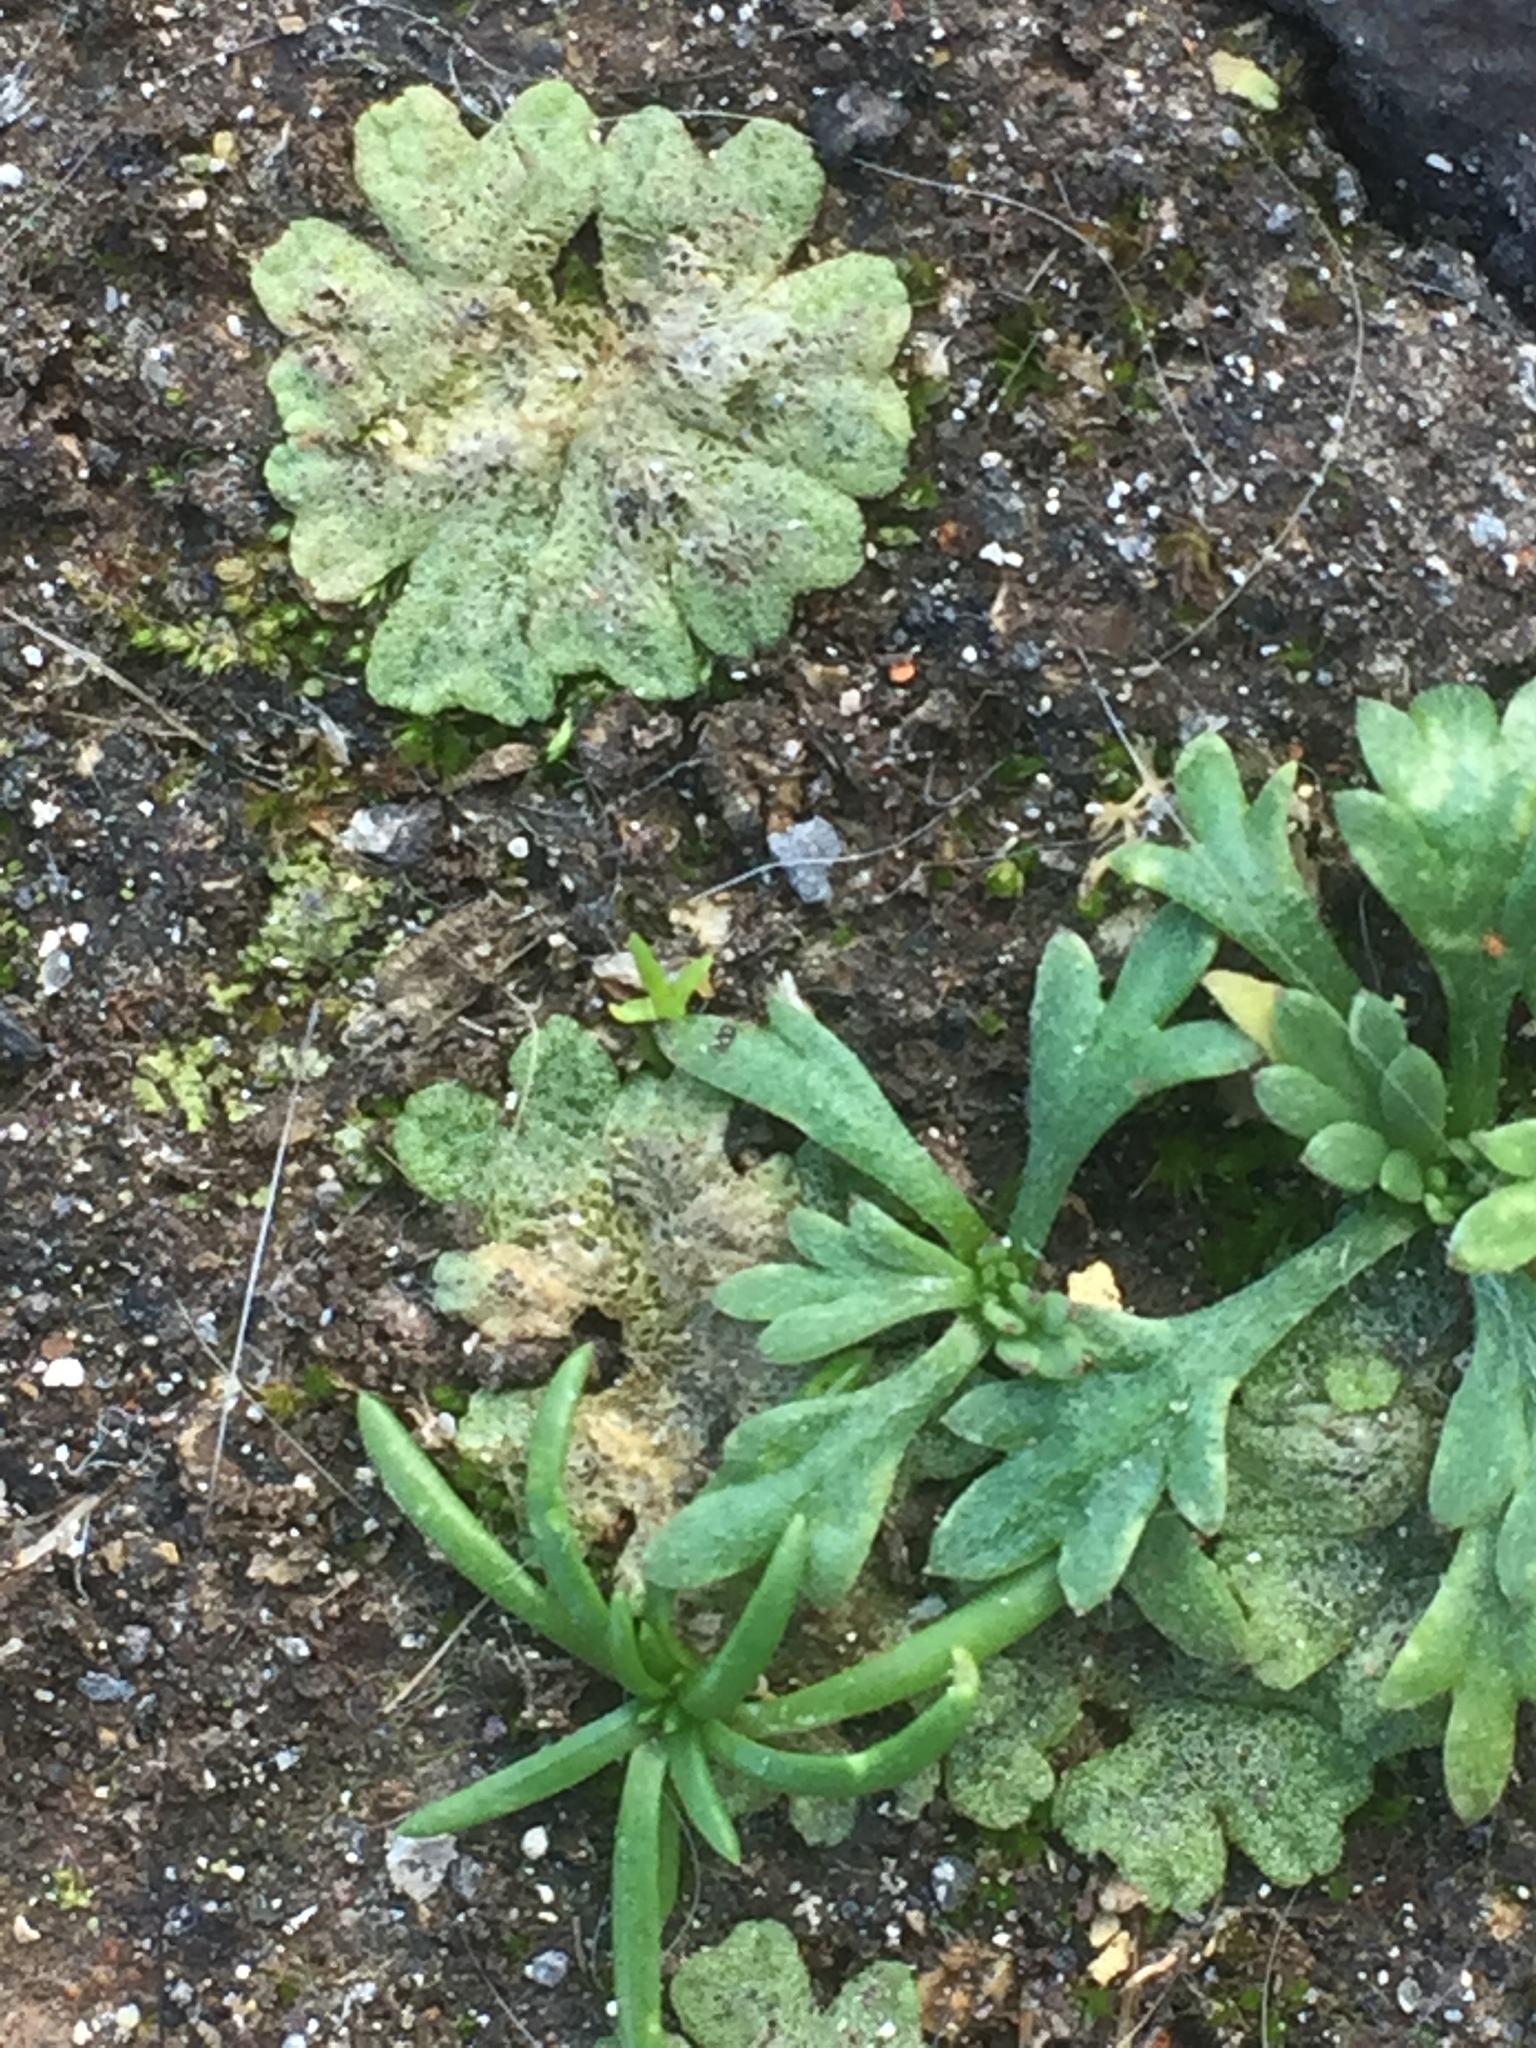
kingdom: Plantae
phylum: Marchantiophyta
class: Marchantiopsida
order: Marchantiales
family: Ricciaceae
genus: Riccia
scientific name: Riccia cavernosa
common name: Cavernous crystalwort
